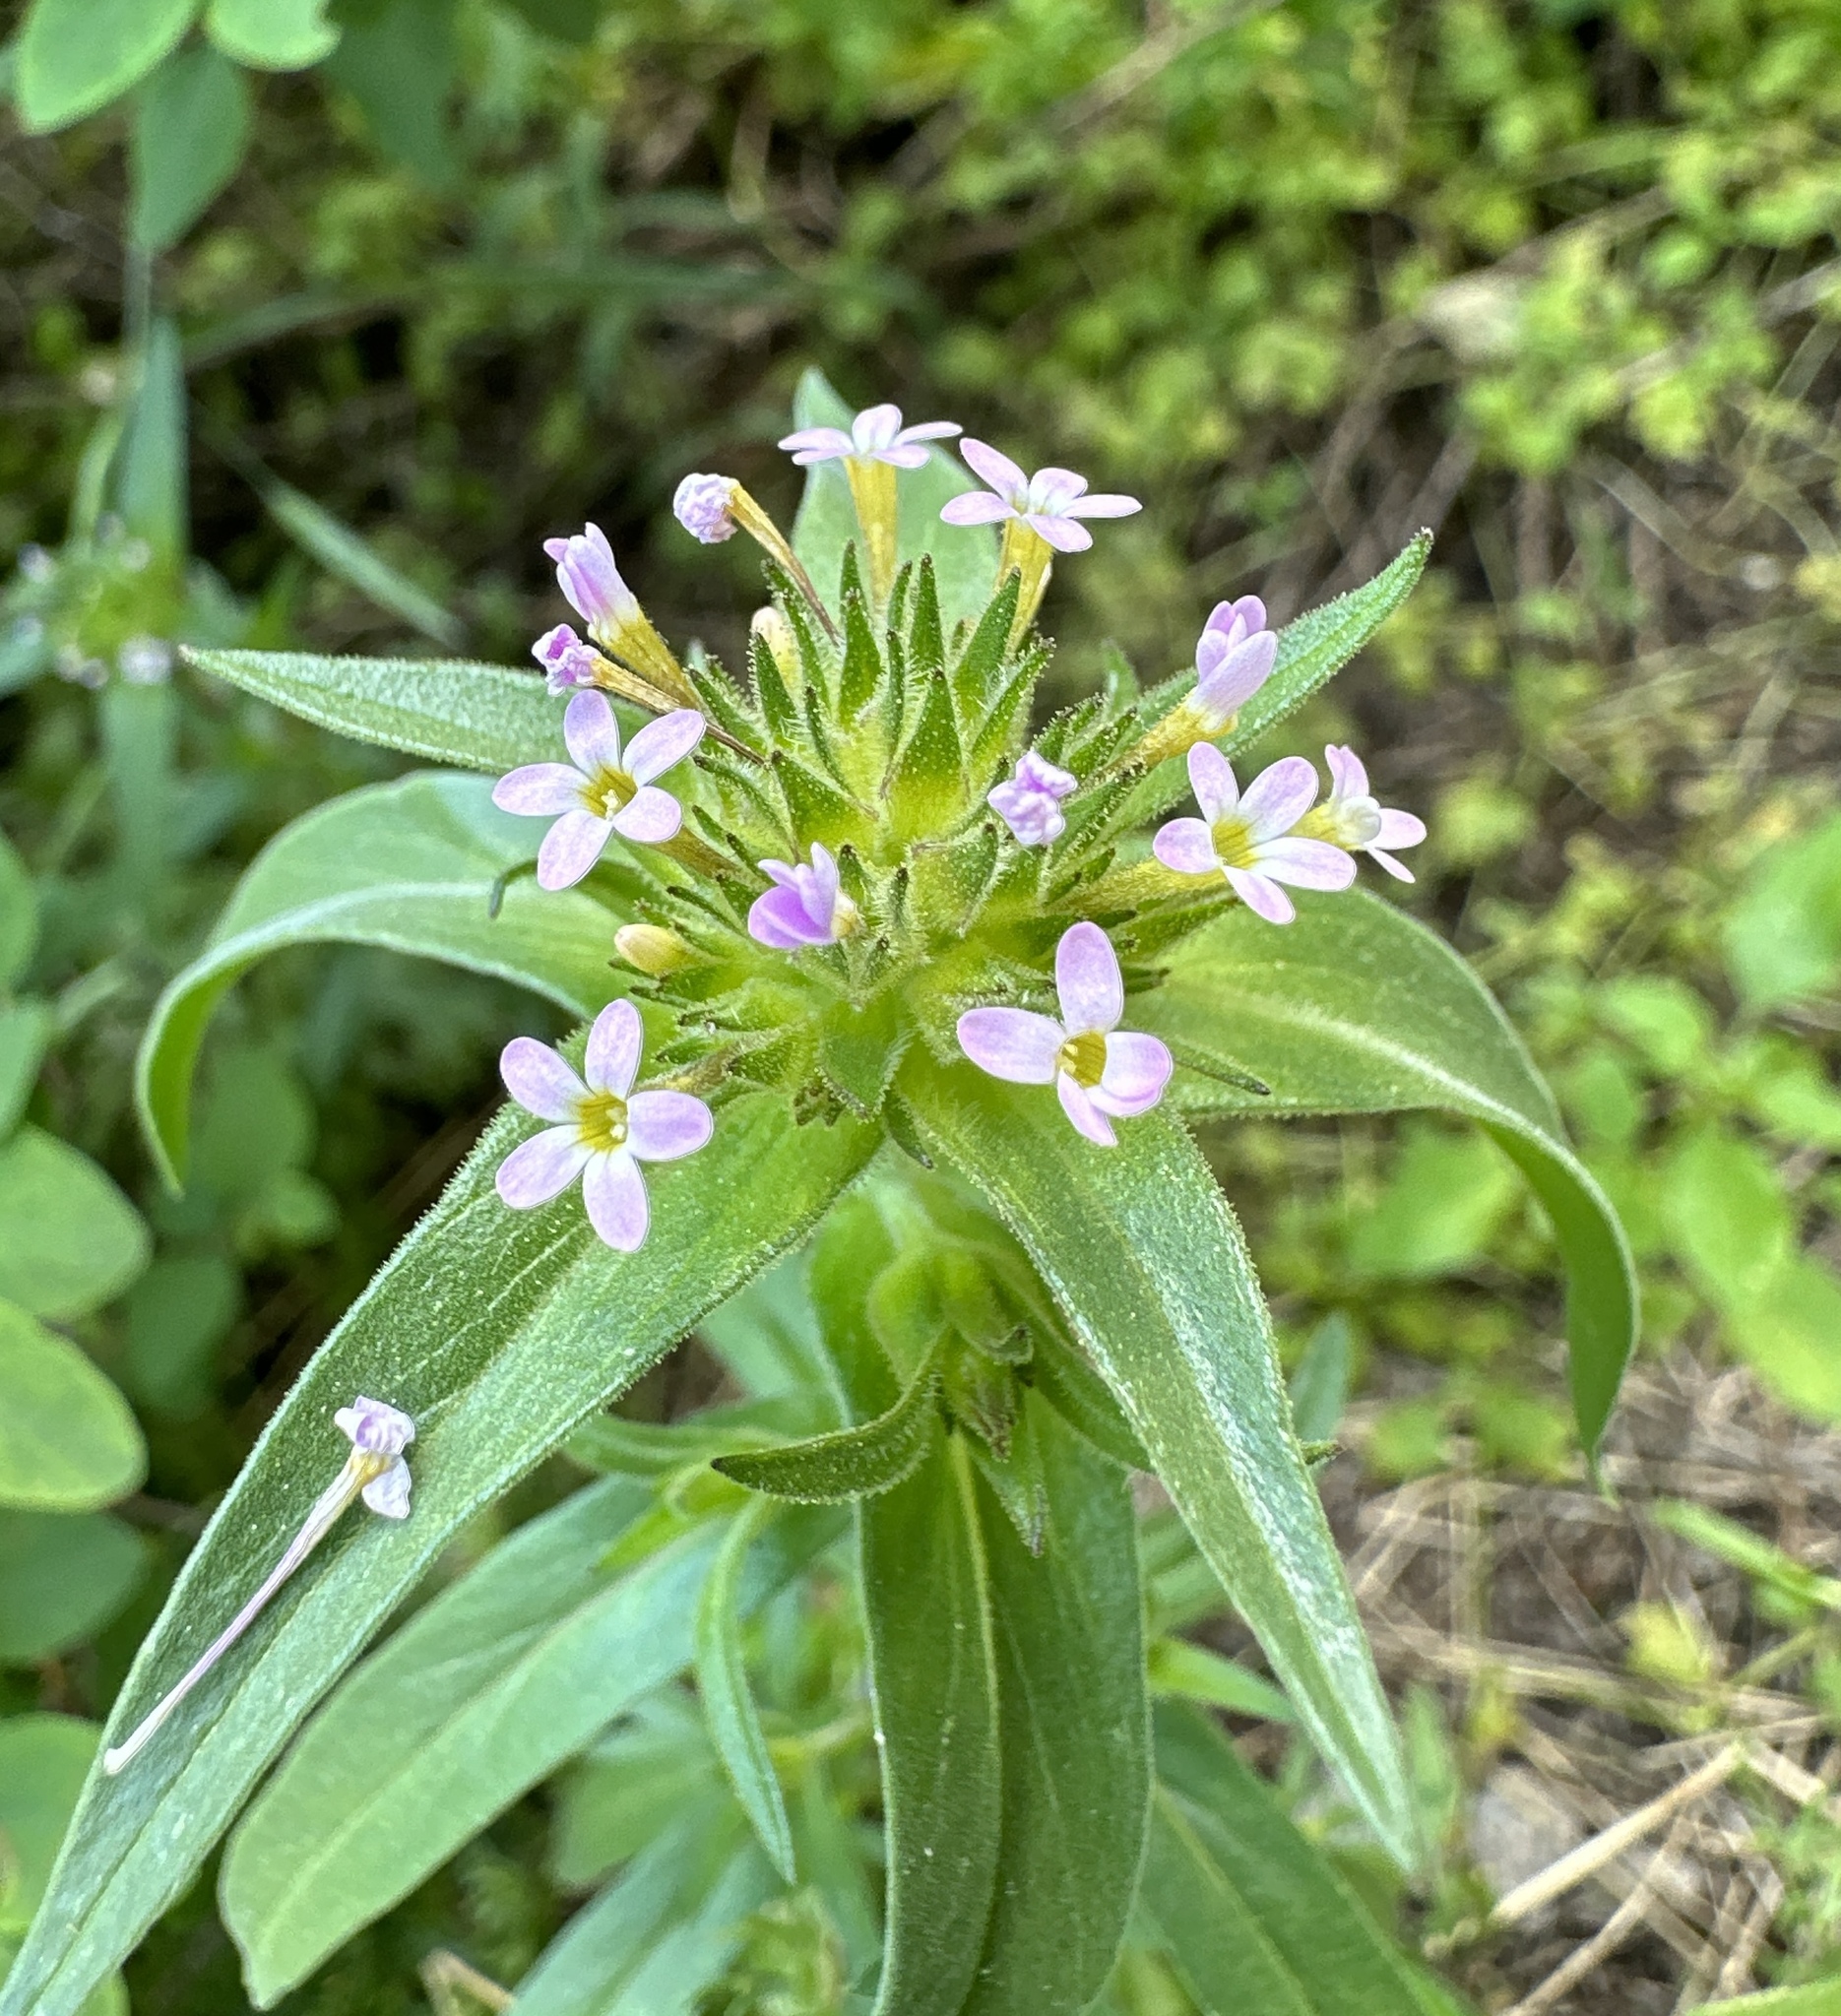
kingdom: Plantae
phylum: Tracheophyta
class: Magnoliopsida
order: Ericales
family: Polemoniaceae
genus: Collomia
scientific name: Collomia linearis
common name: Tiny trumpet
